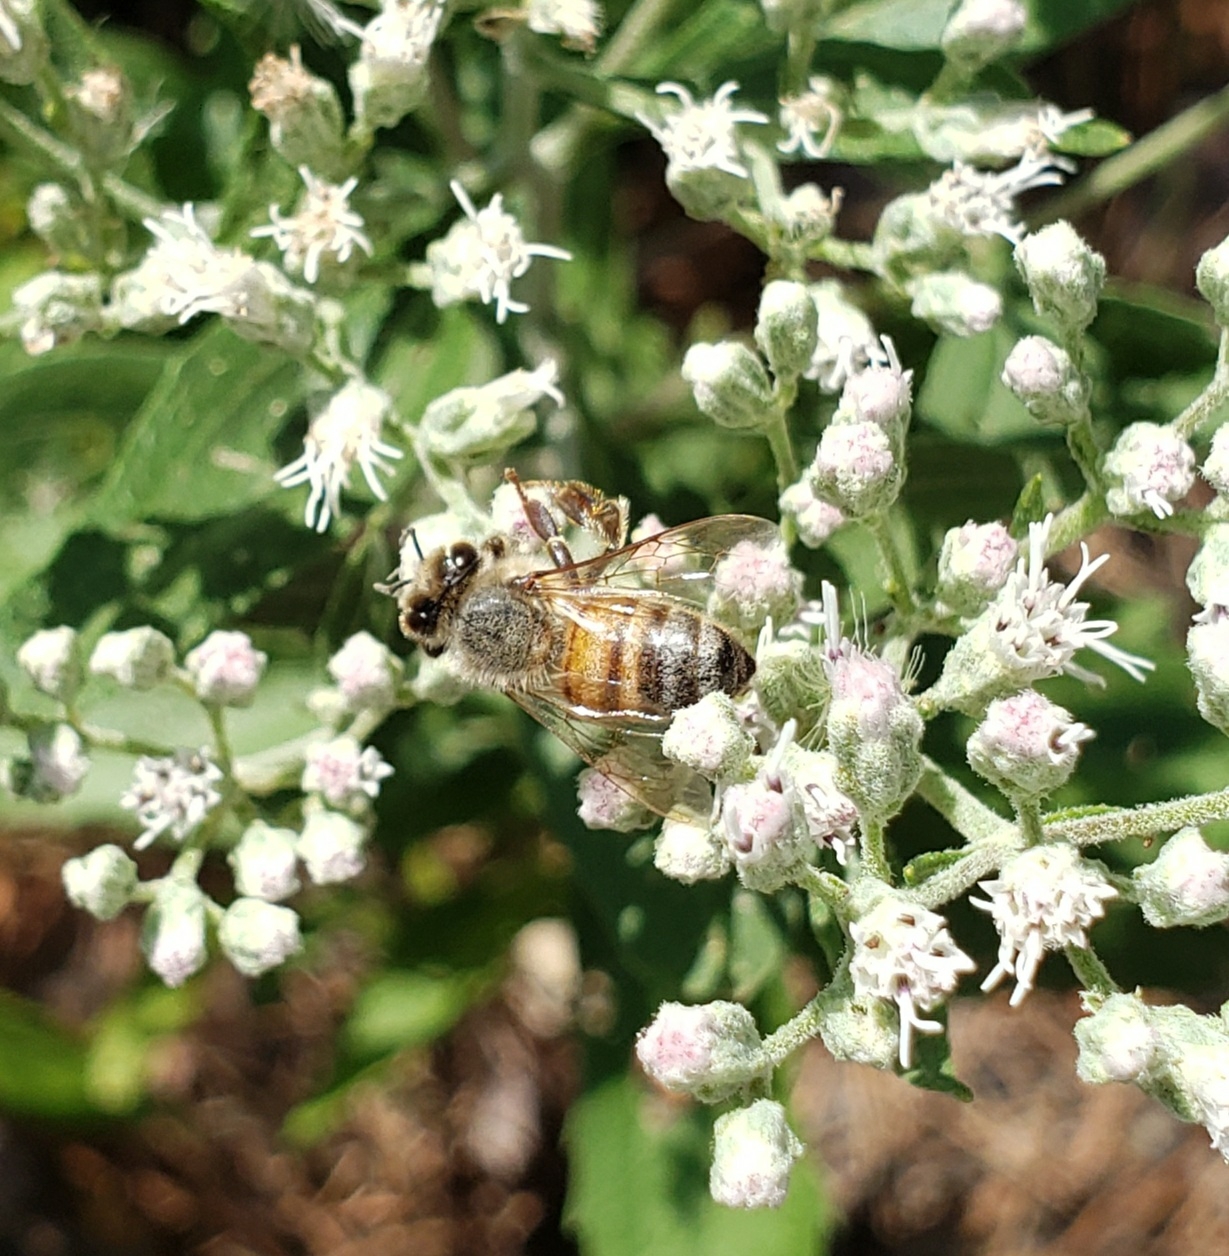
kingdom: Animalia
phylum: Arthropoda
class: Insecta
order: Hymenoptera
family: Apidae
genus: Apis
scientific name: Apis mellifera
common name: Honey bee
